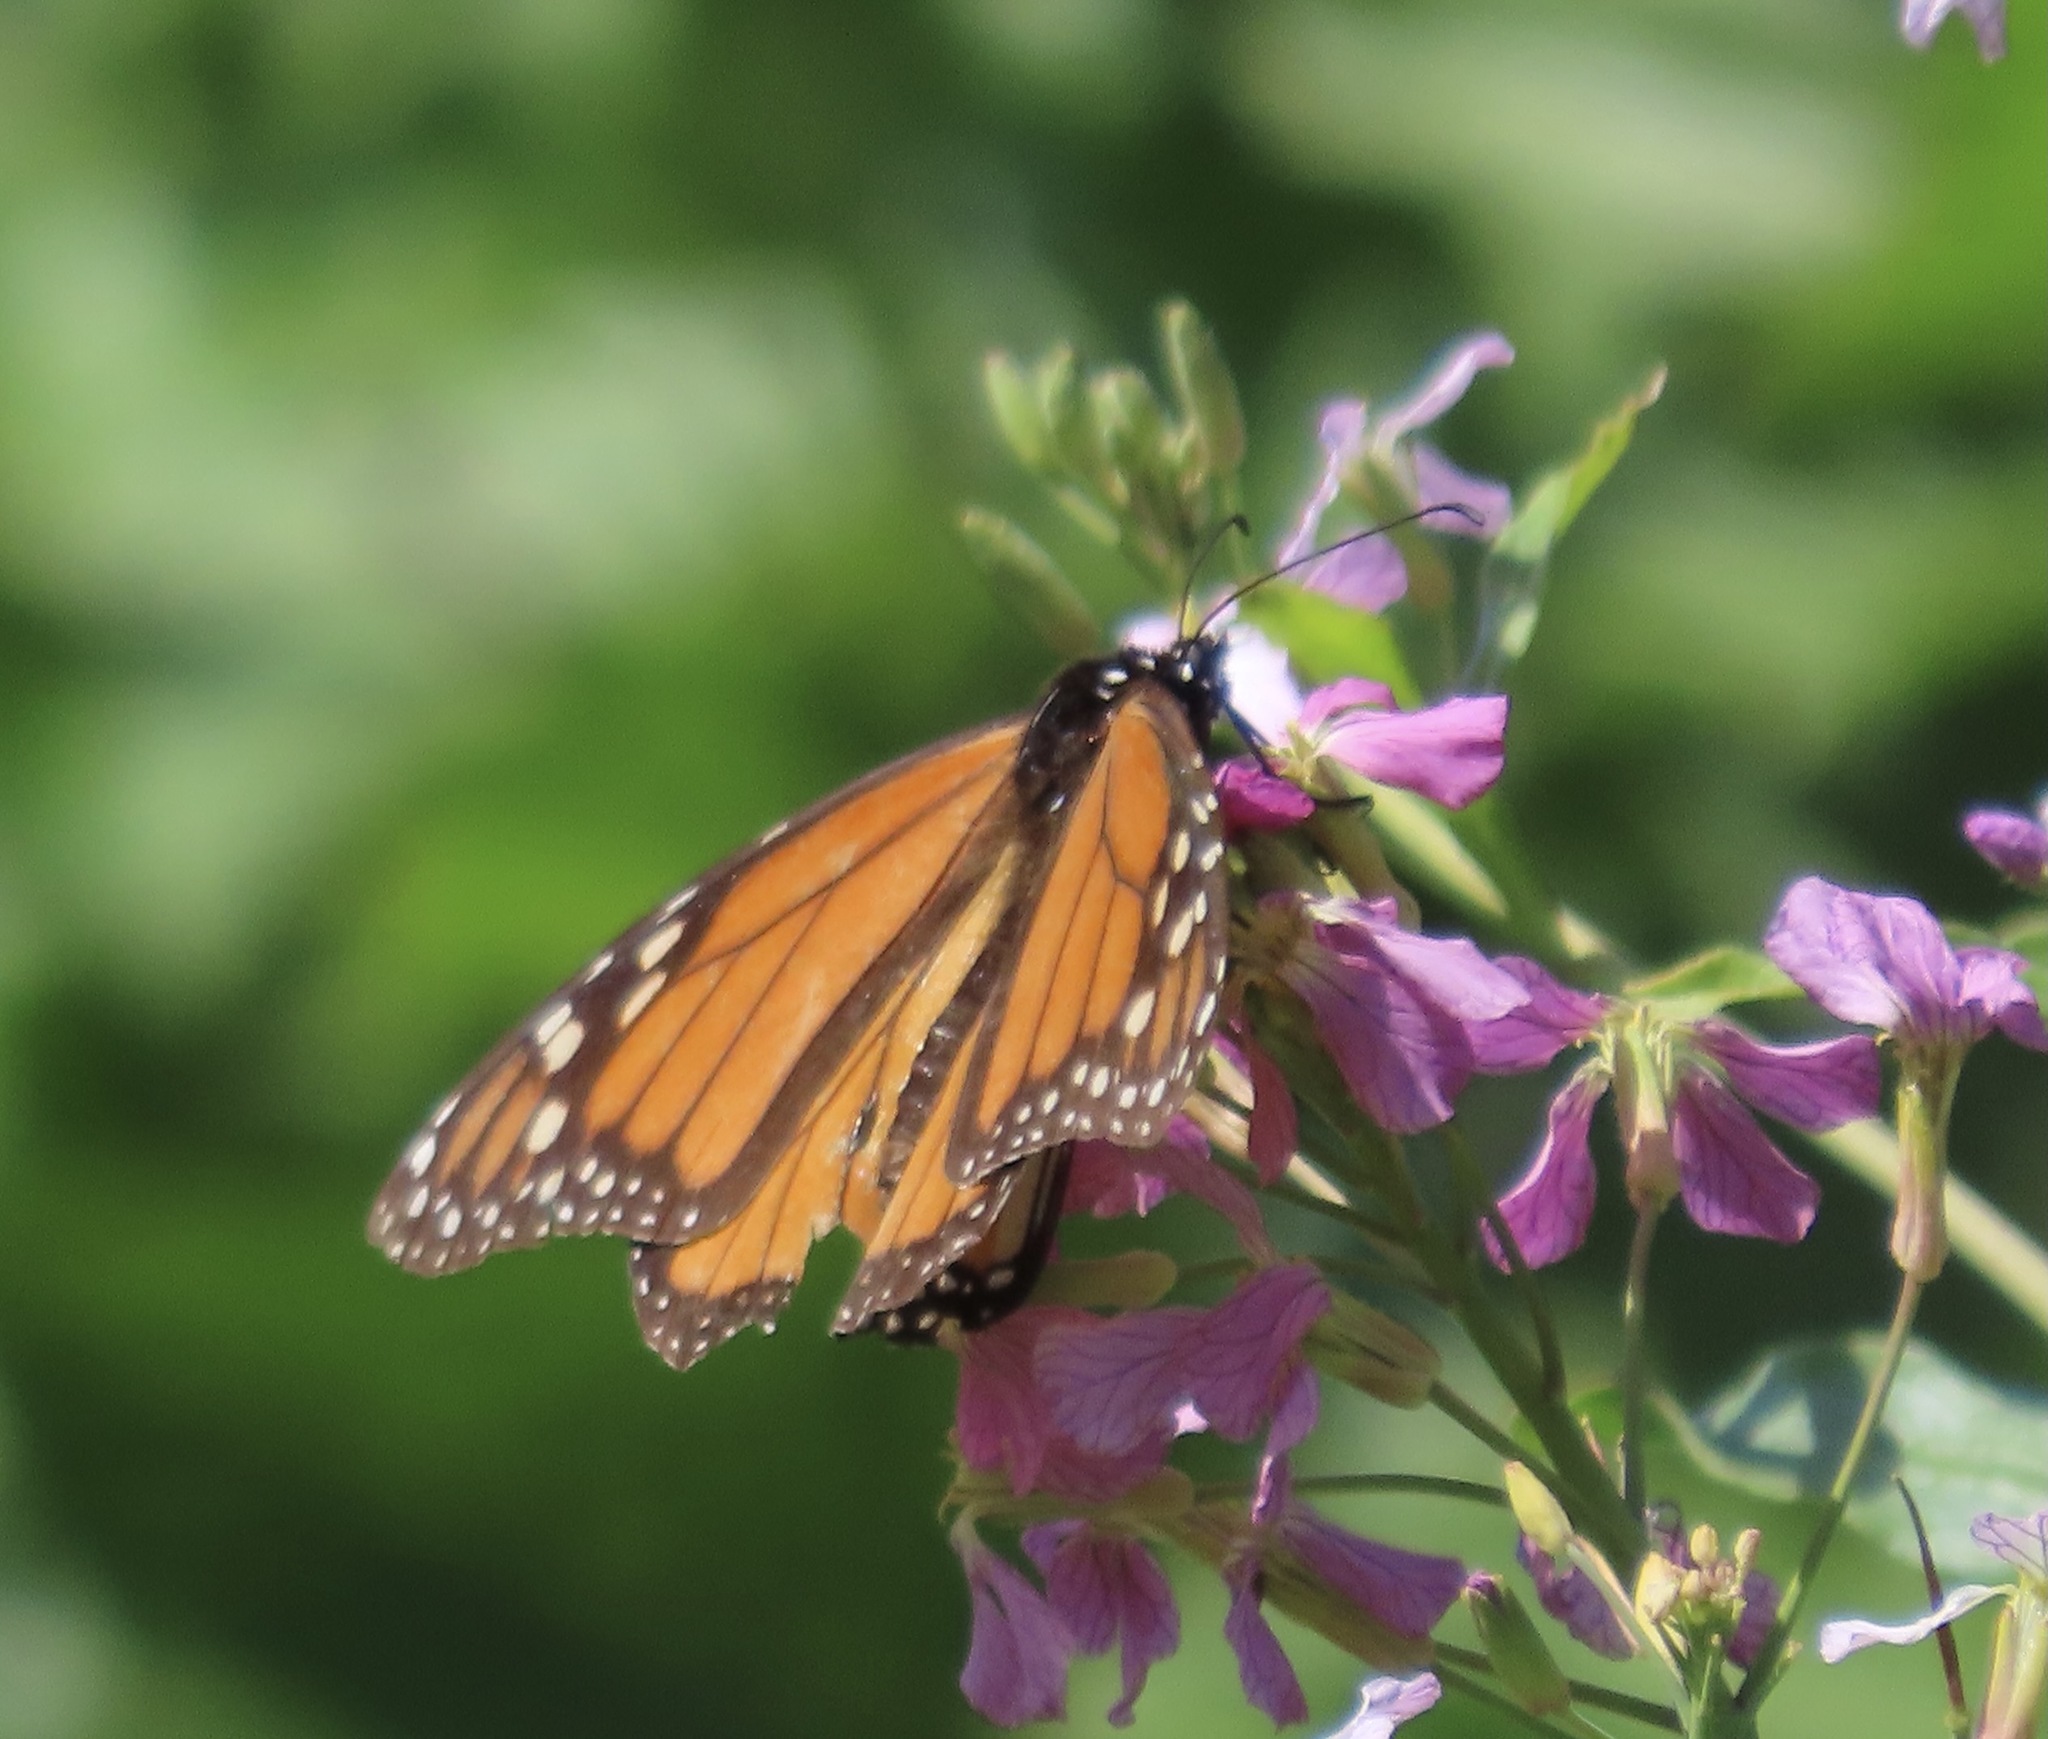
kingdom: Animalia
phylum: Arthropoda
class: Insecta
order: Lepidoptera
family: Nymphalidae
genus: Danaus
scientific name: Danaus plexippus
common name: Monarch
